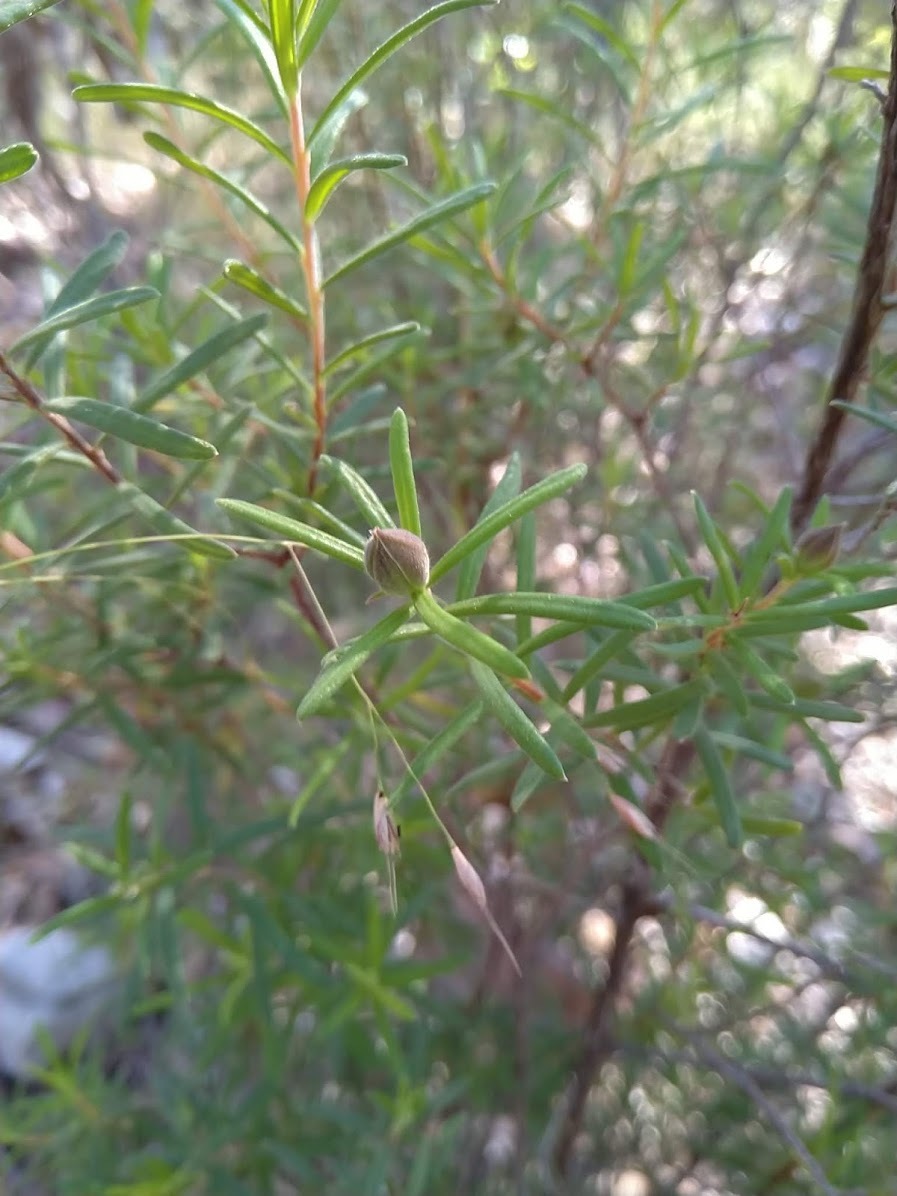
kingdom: Plantae
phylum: Tracheophyta
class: Magnoliopsida
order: Dilleniales
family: Dilleniaceae
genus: Hibbertia
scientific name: Hibbertia linearis
